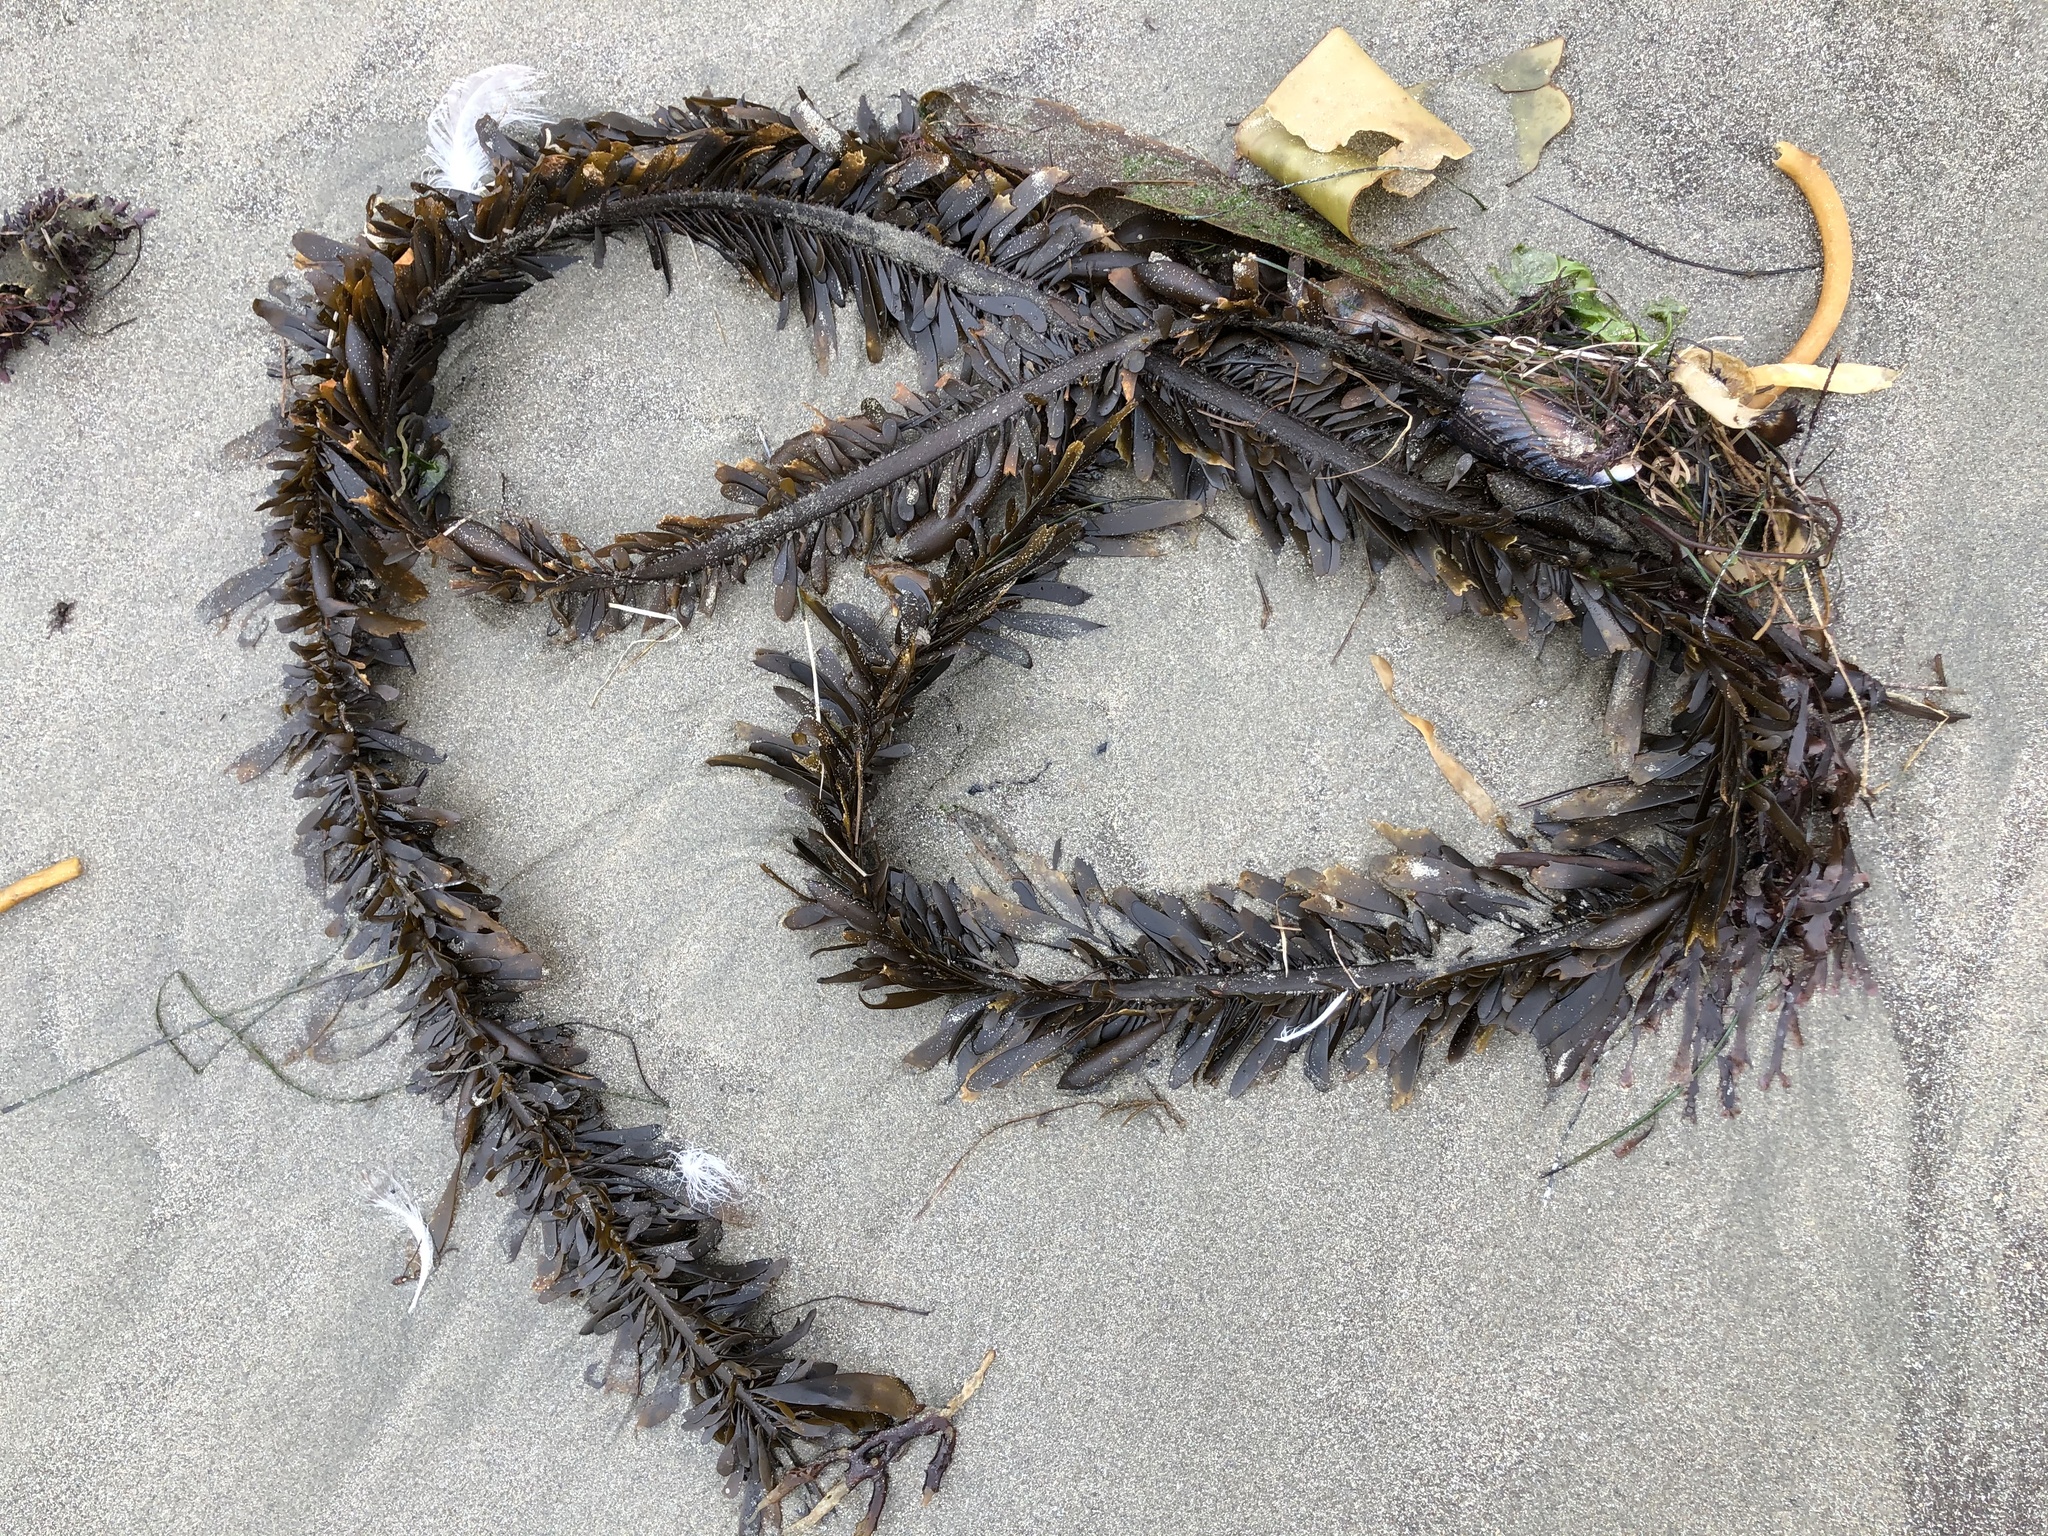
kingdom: Chromista
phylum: Ochrophyta
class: Phaeophyceae
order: Laminariales
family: Lessoniaceae
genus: Egregia
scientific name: Egregia menziesii
